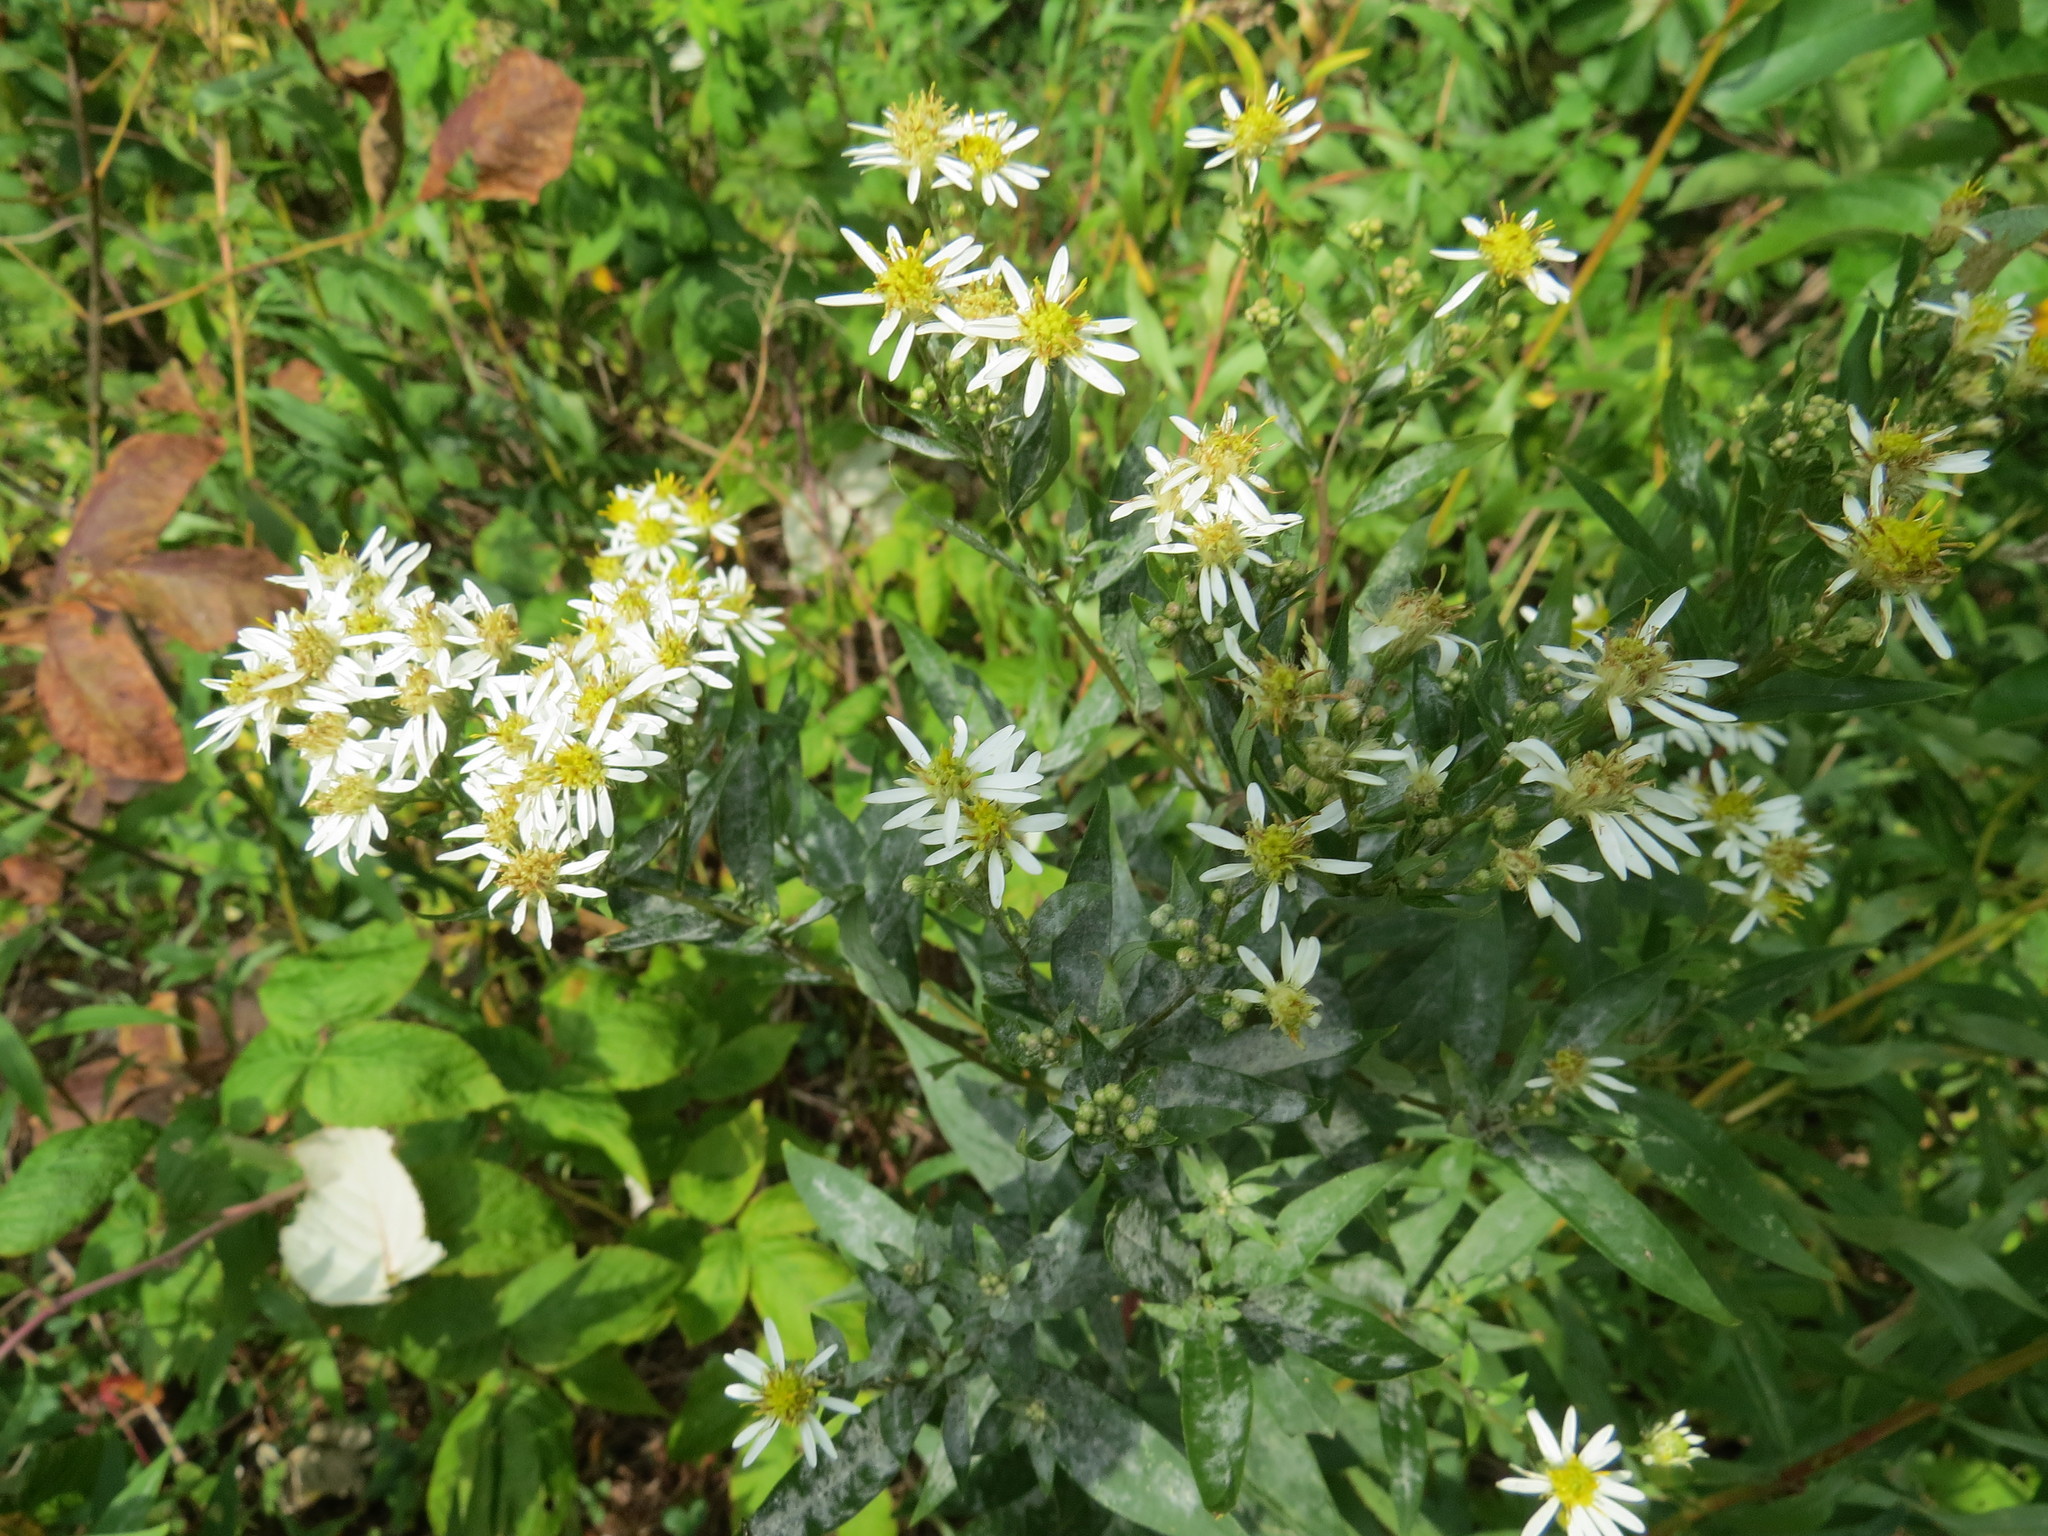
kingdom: Plantae
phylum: Tracheophyta
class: Magnoliopsida
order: Asterales
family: Asteraceae
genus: Doellingeria
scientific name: Doellingeria umbellata
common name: Flat-top white aster
